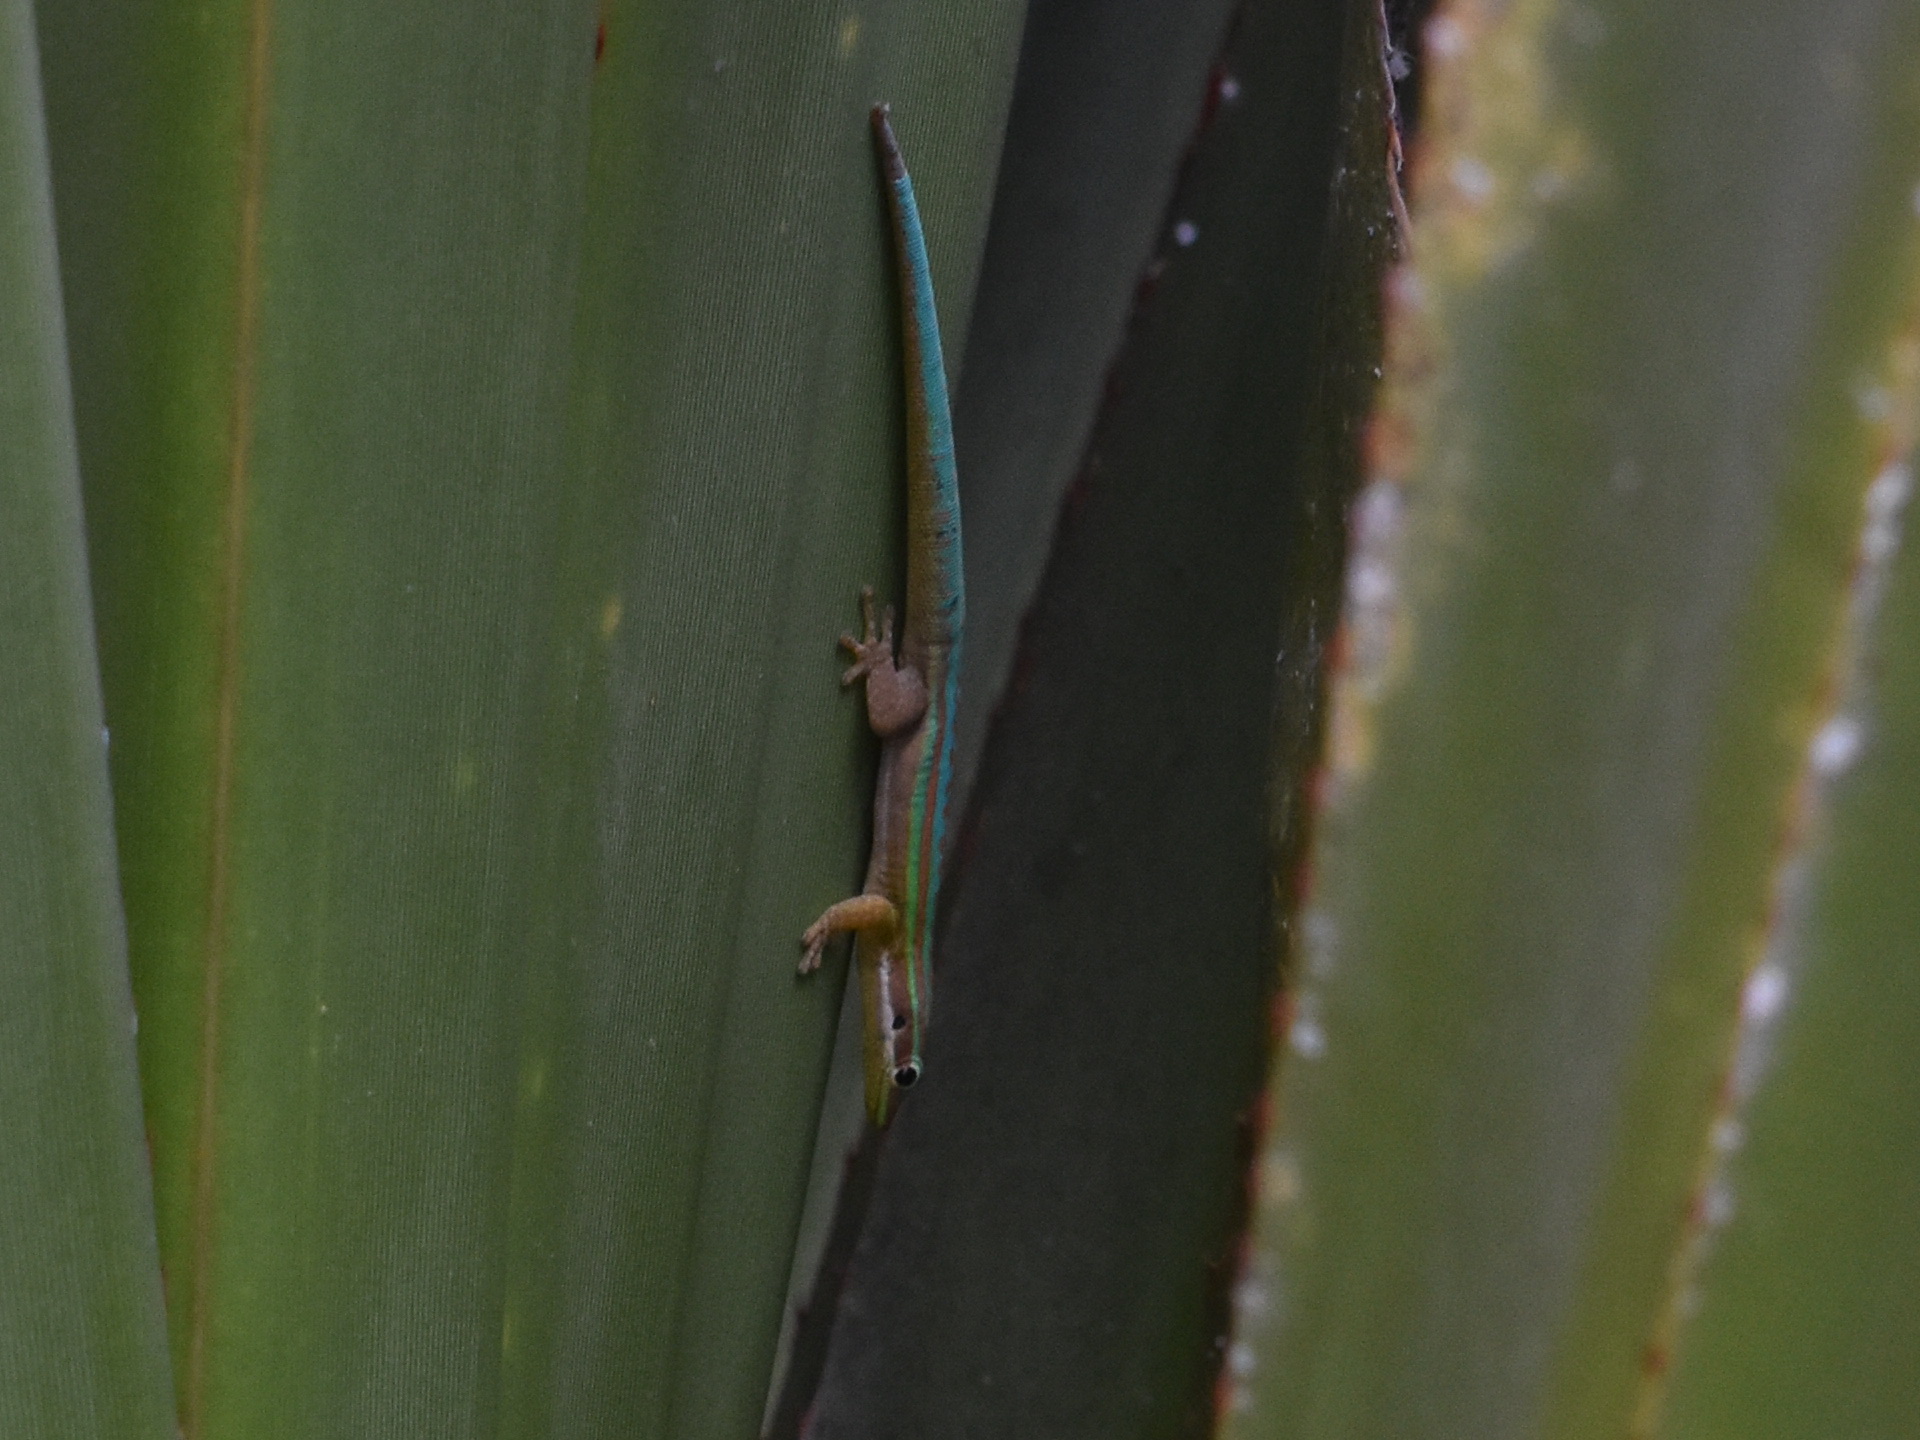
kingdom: Animalia
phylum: Chordata
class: Squamata
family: Gekkonidae
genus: Phelsuma
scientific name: Phelsuma cepediana
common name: Bluetail day gecko
